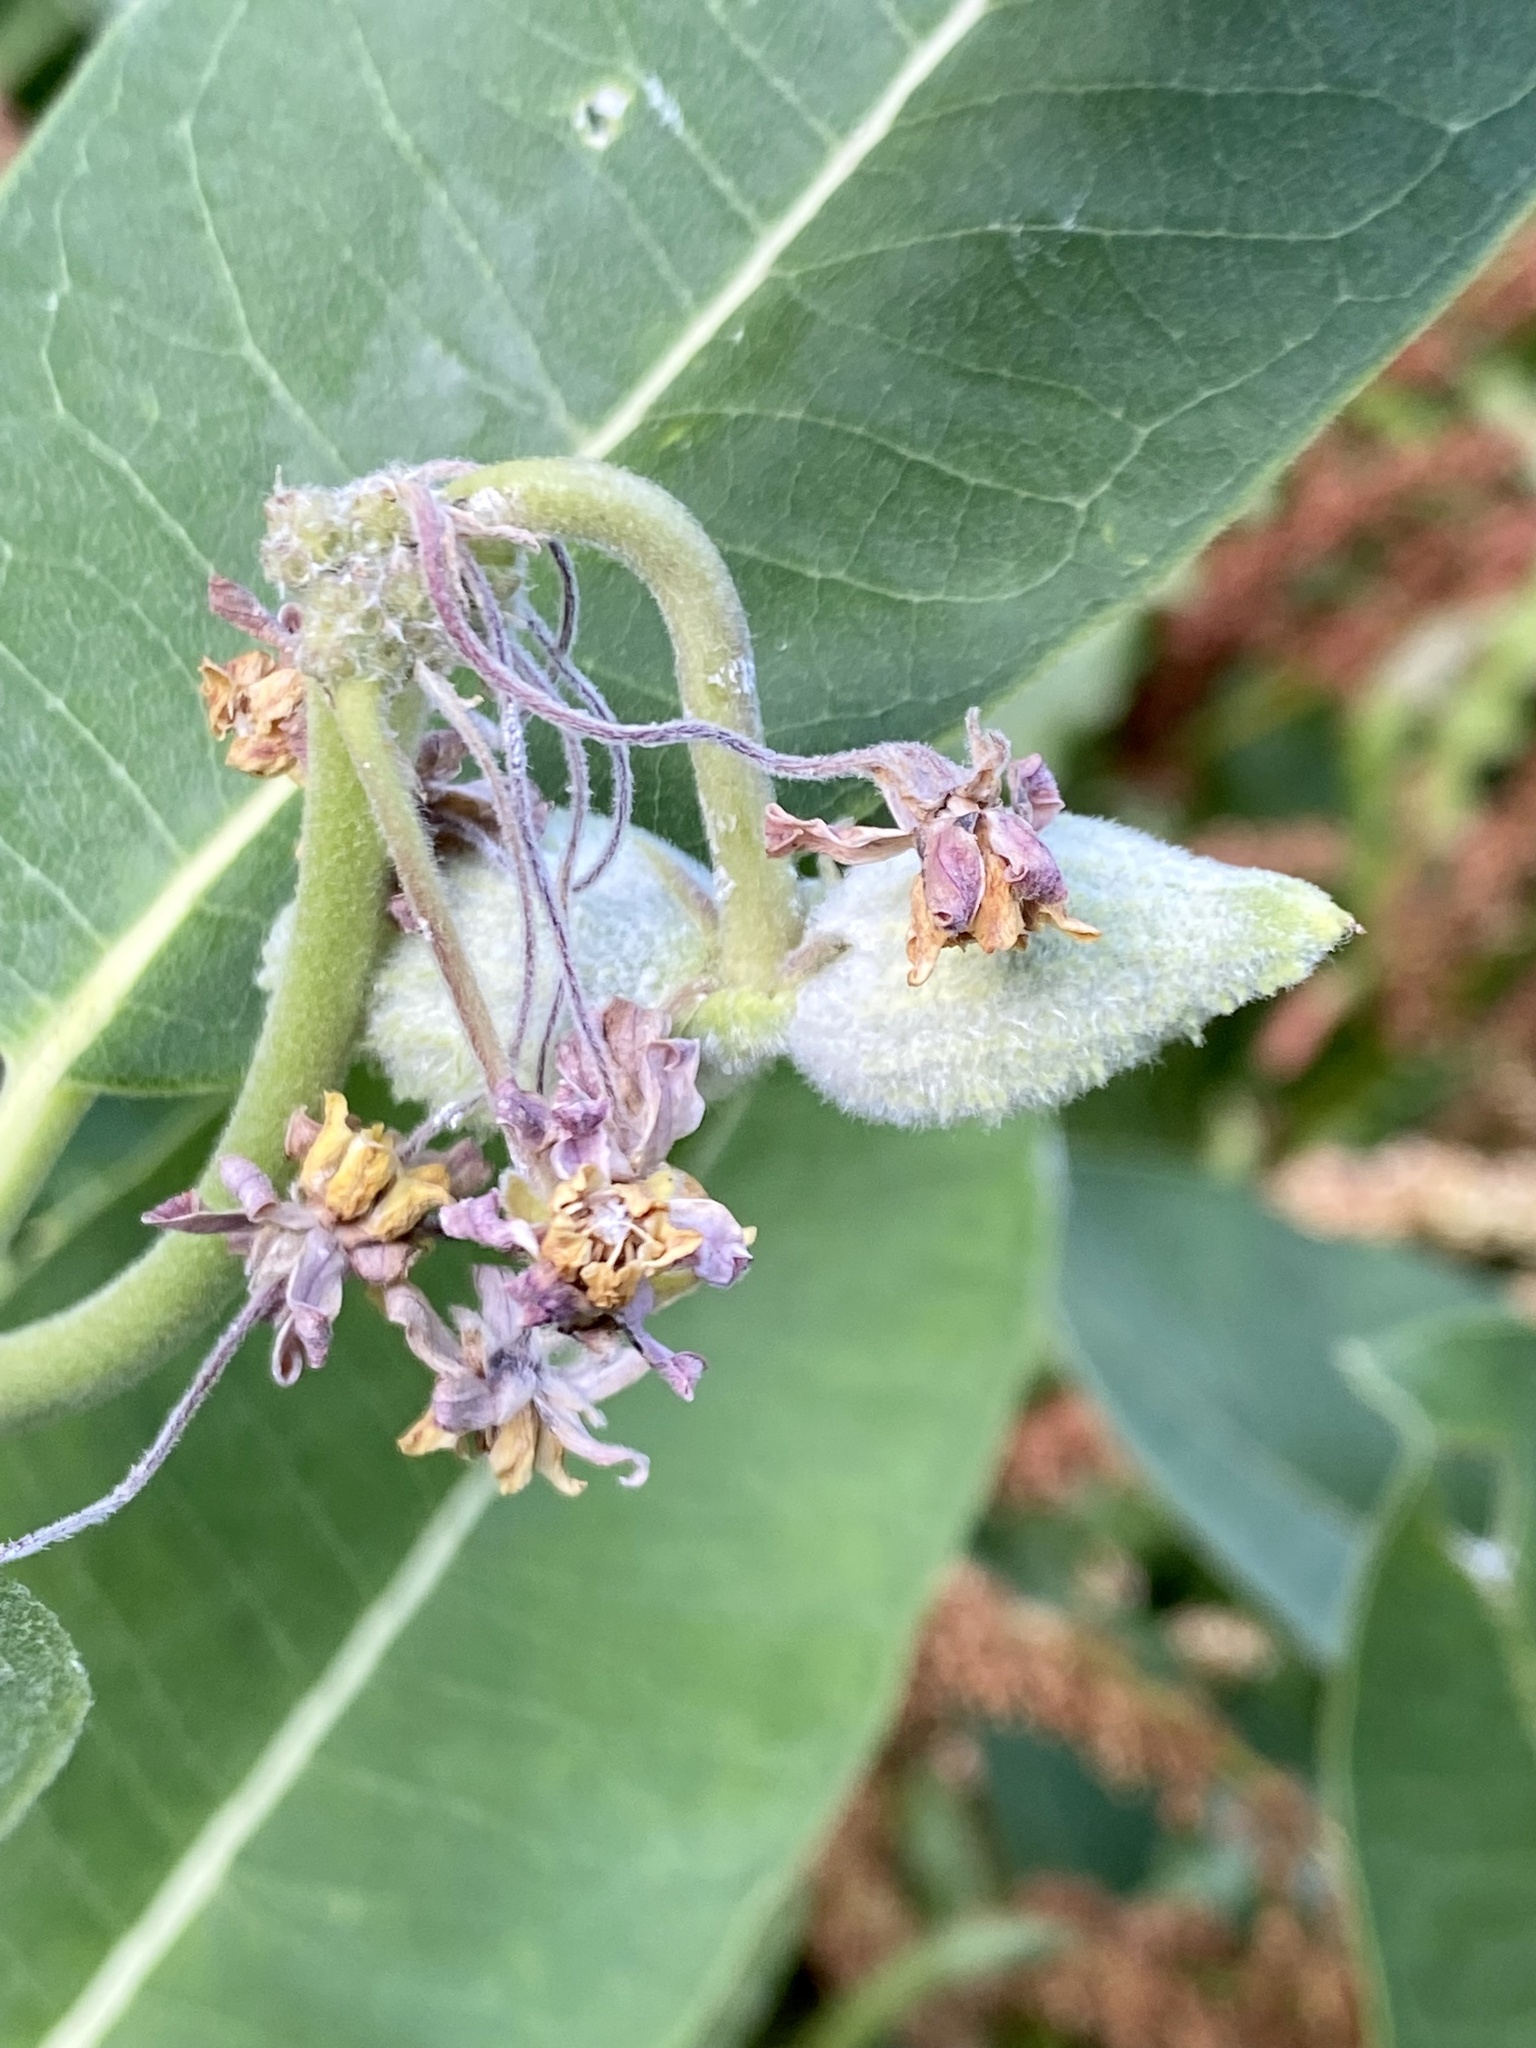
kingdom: Plantae
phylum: Tracheophyta
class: Magnoliopsida
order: Gentianales
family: Apocynaceae
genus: Asclepias
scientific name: Asclepias syriaca
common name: Common milkweed
